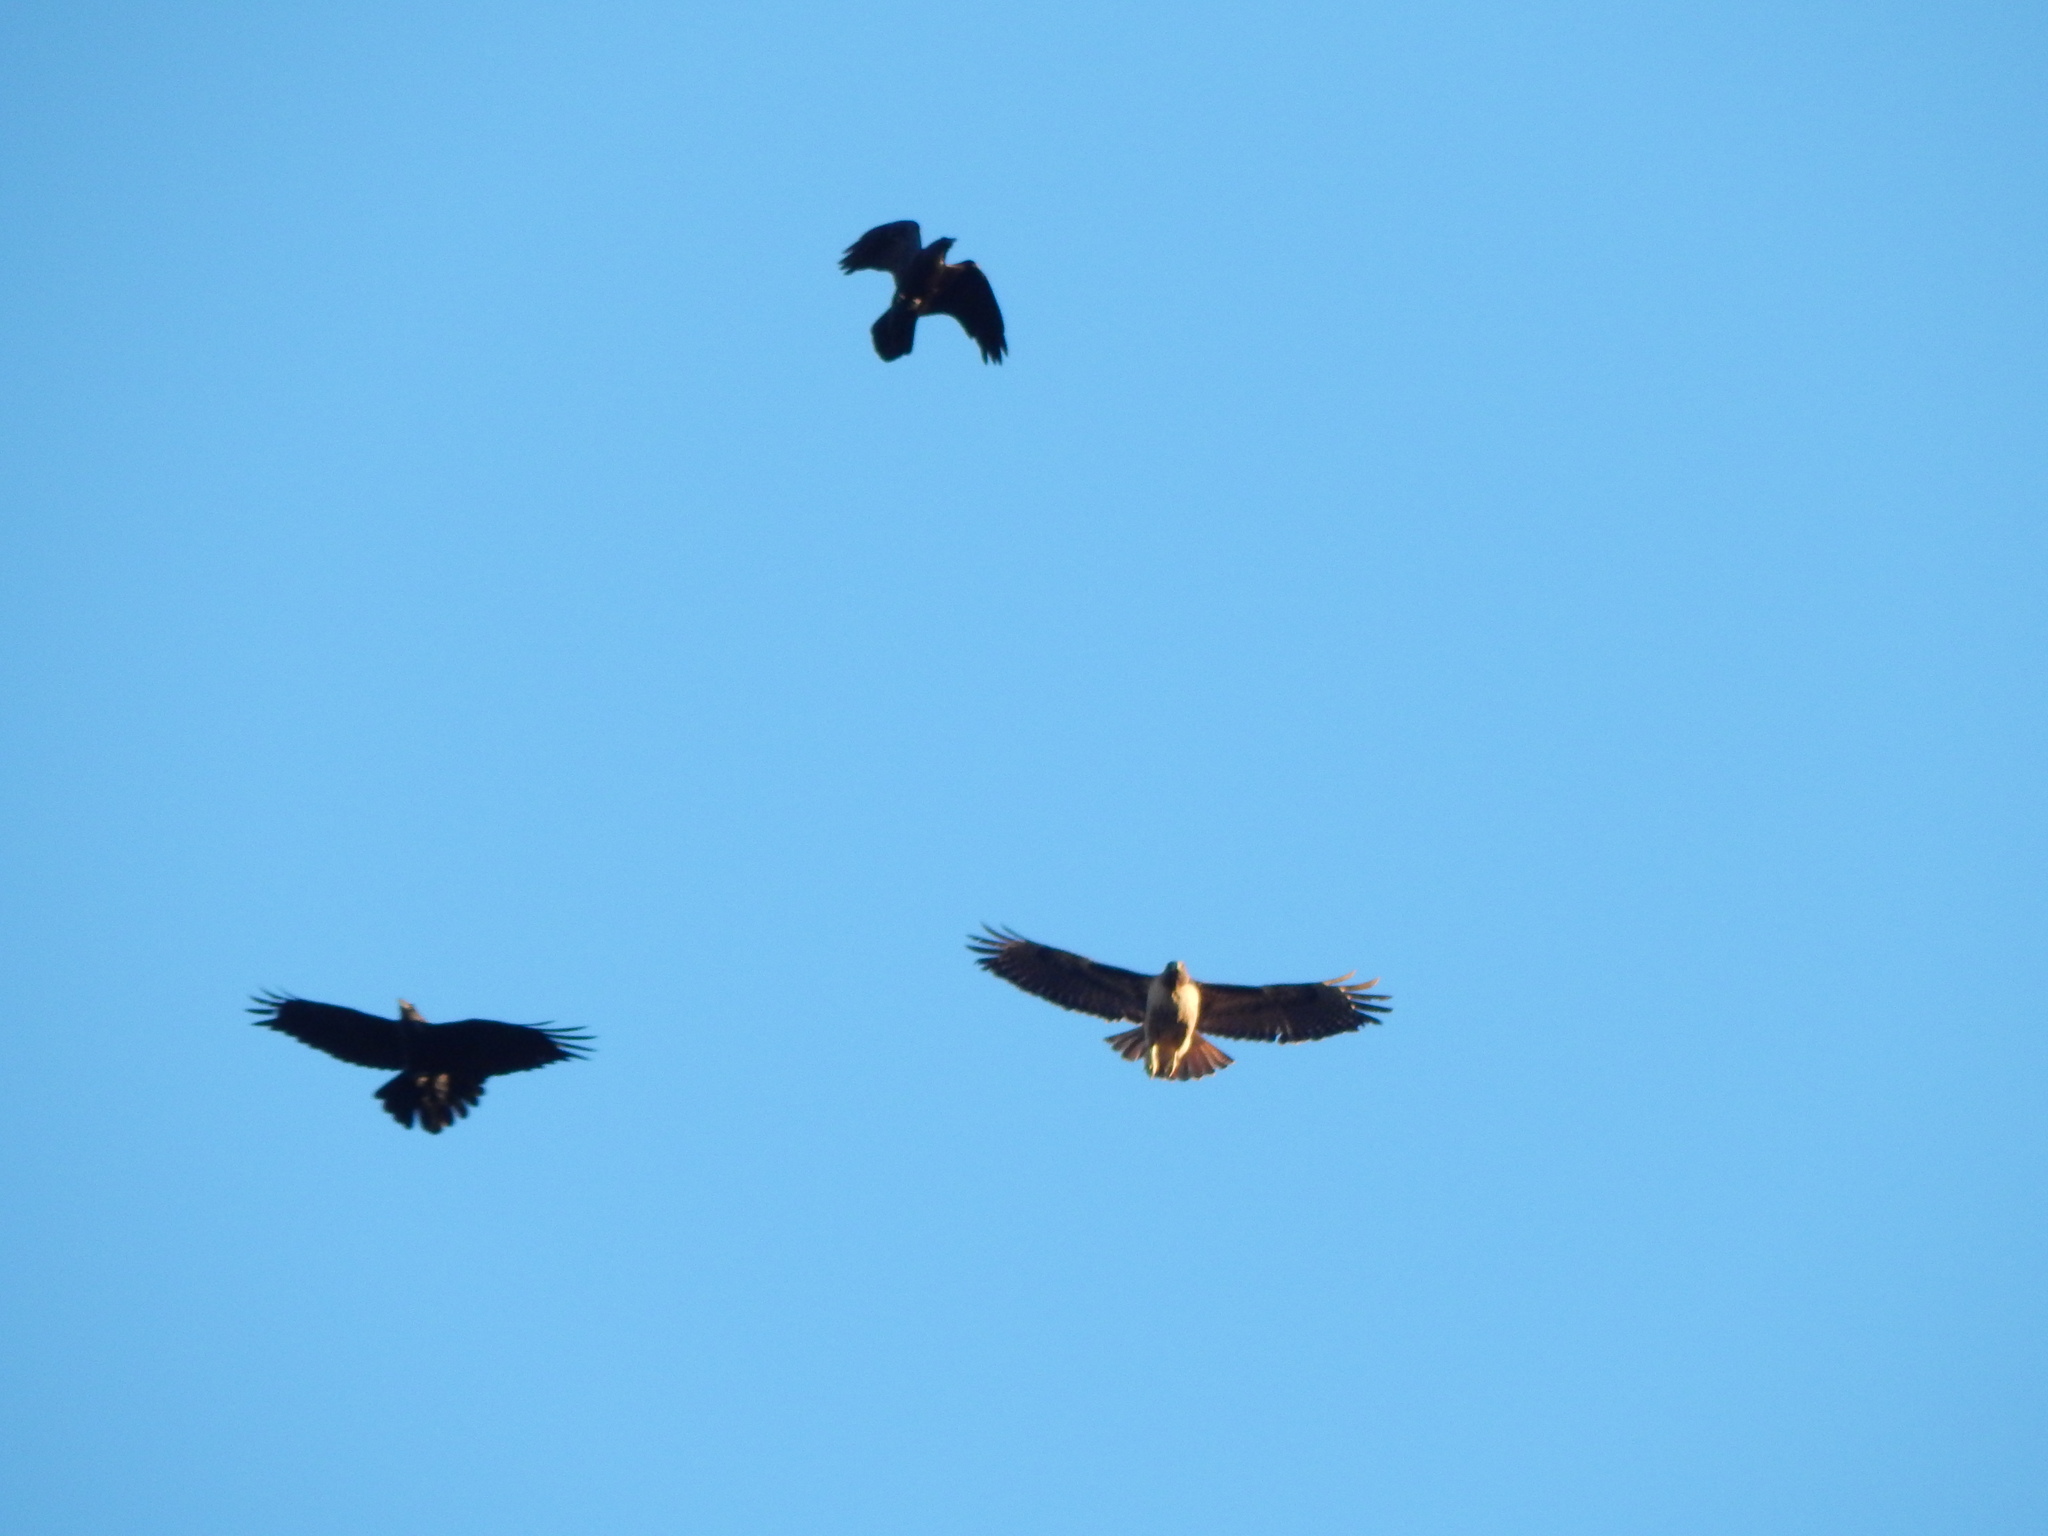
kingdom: Animalia
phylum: Chordata
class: Aves
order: Passeriformes
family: Corvidae
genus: Corvus
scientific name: Corvus corax
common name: Common raven
